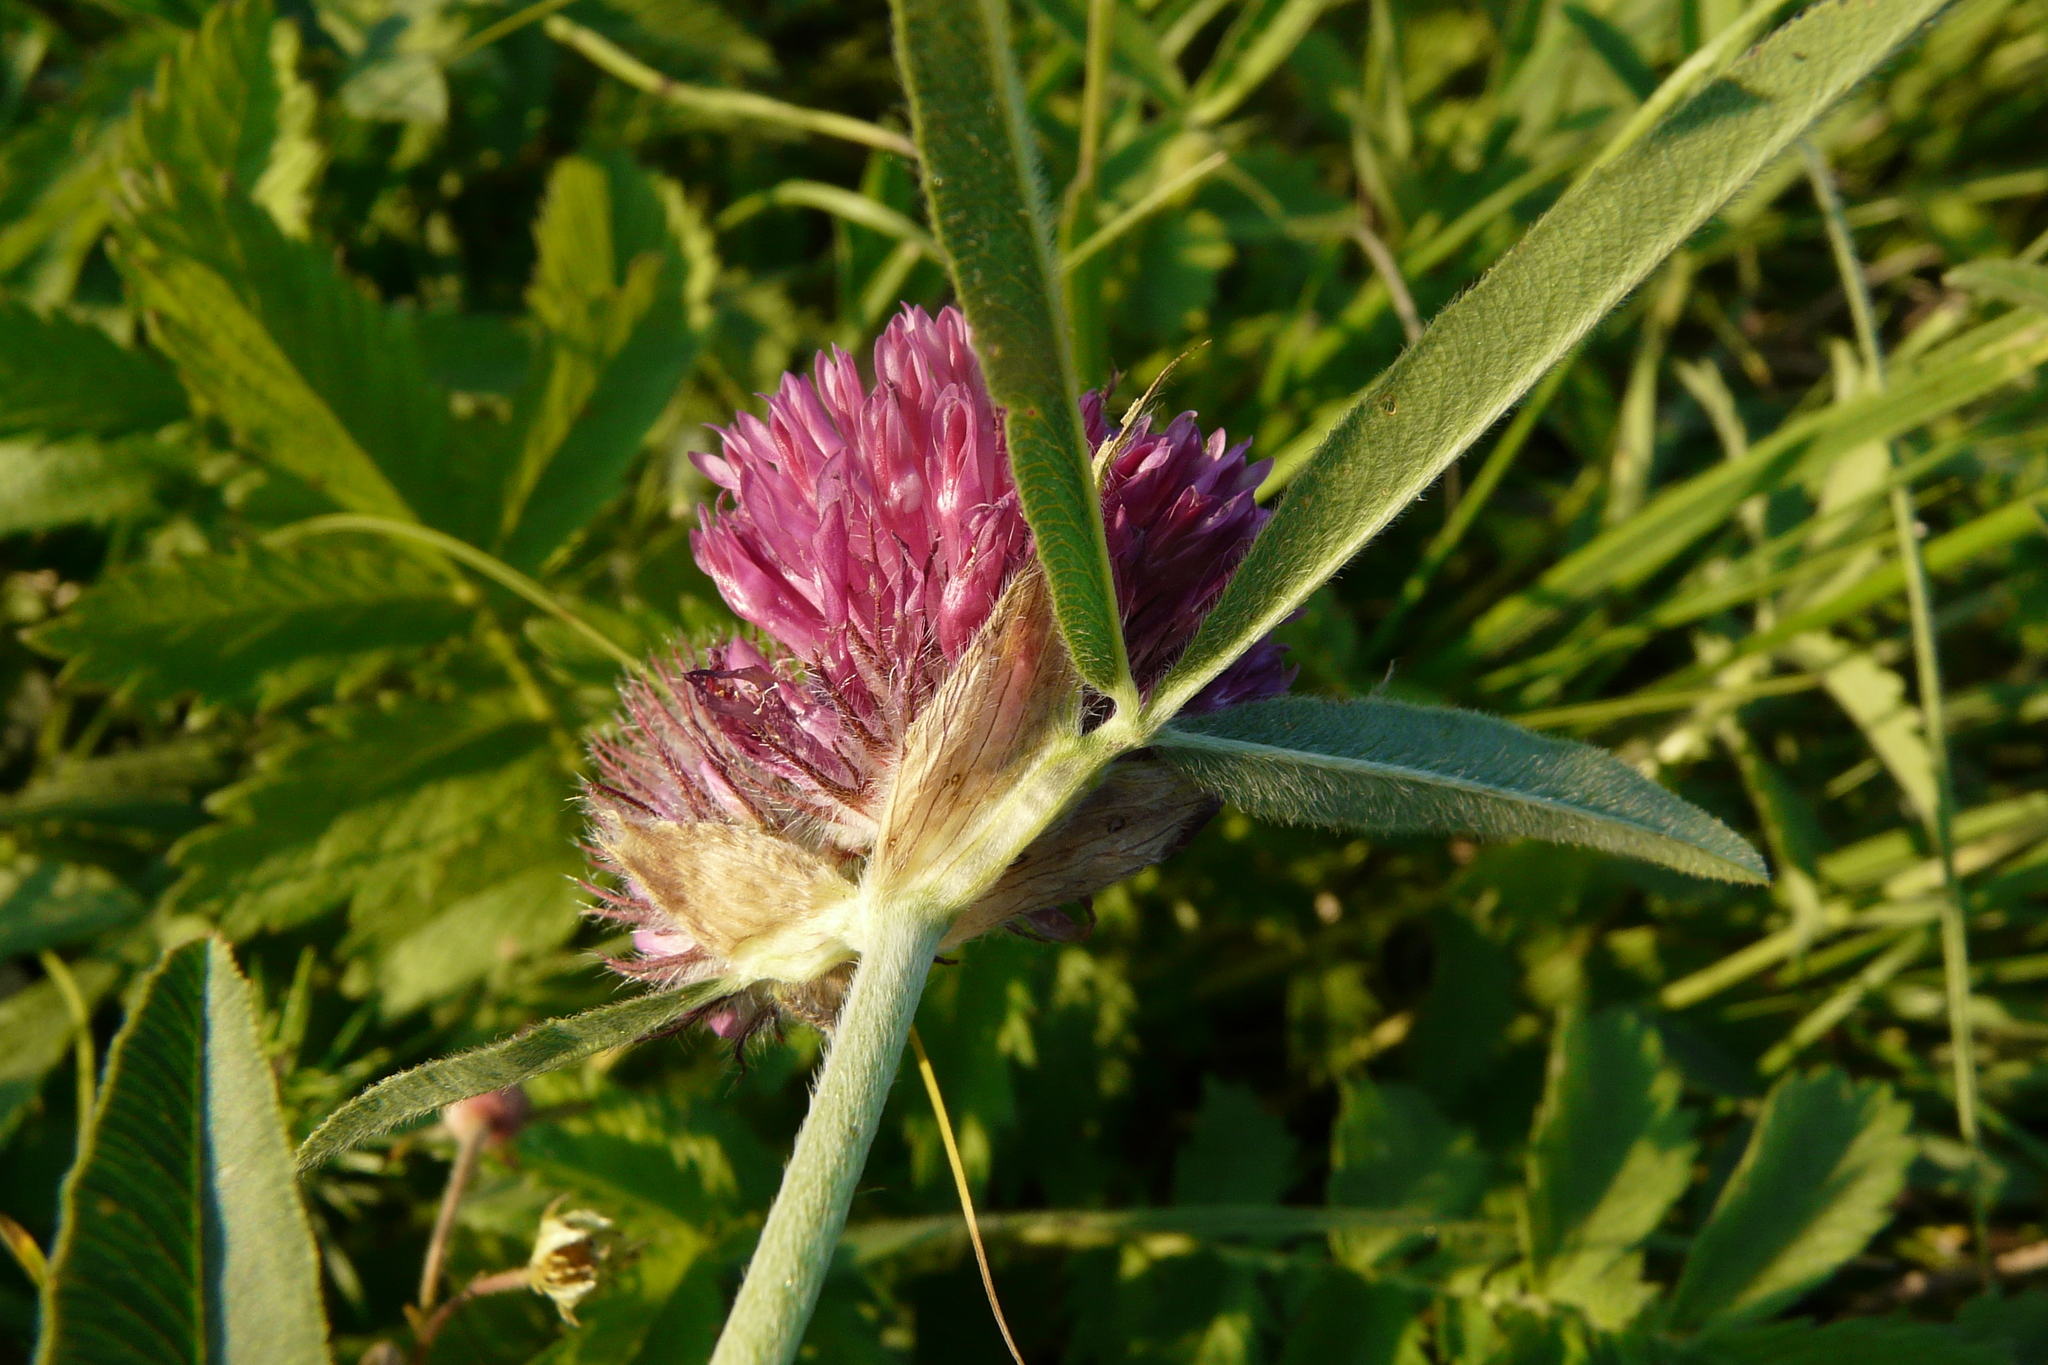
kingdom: Plantae
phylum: Tracheophyta
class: Magnoliopsida
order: Fabales
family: Fabaceae
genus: Trifolium
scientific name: Trifolium alpestre
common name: Owl-head clover
